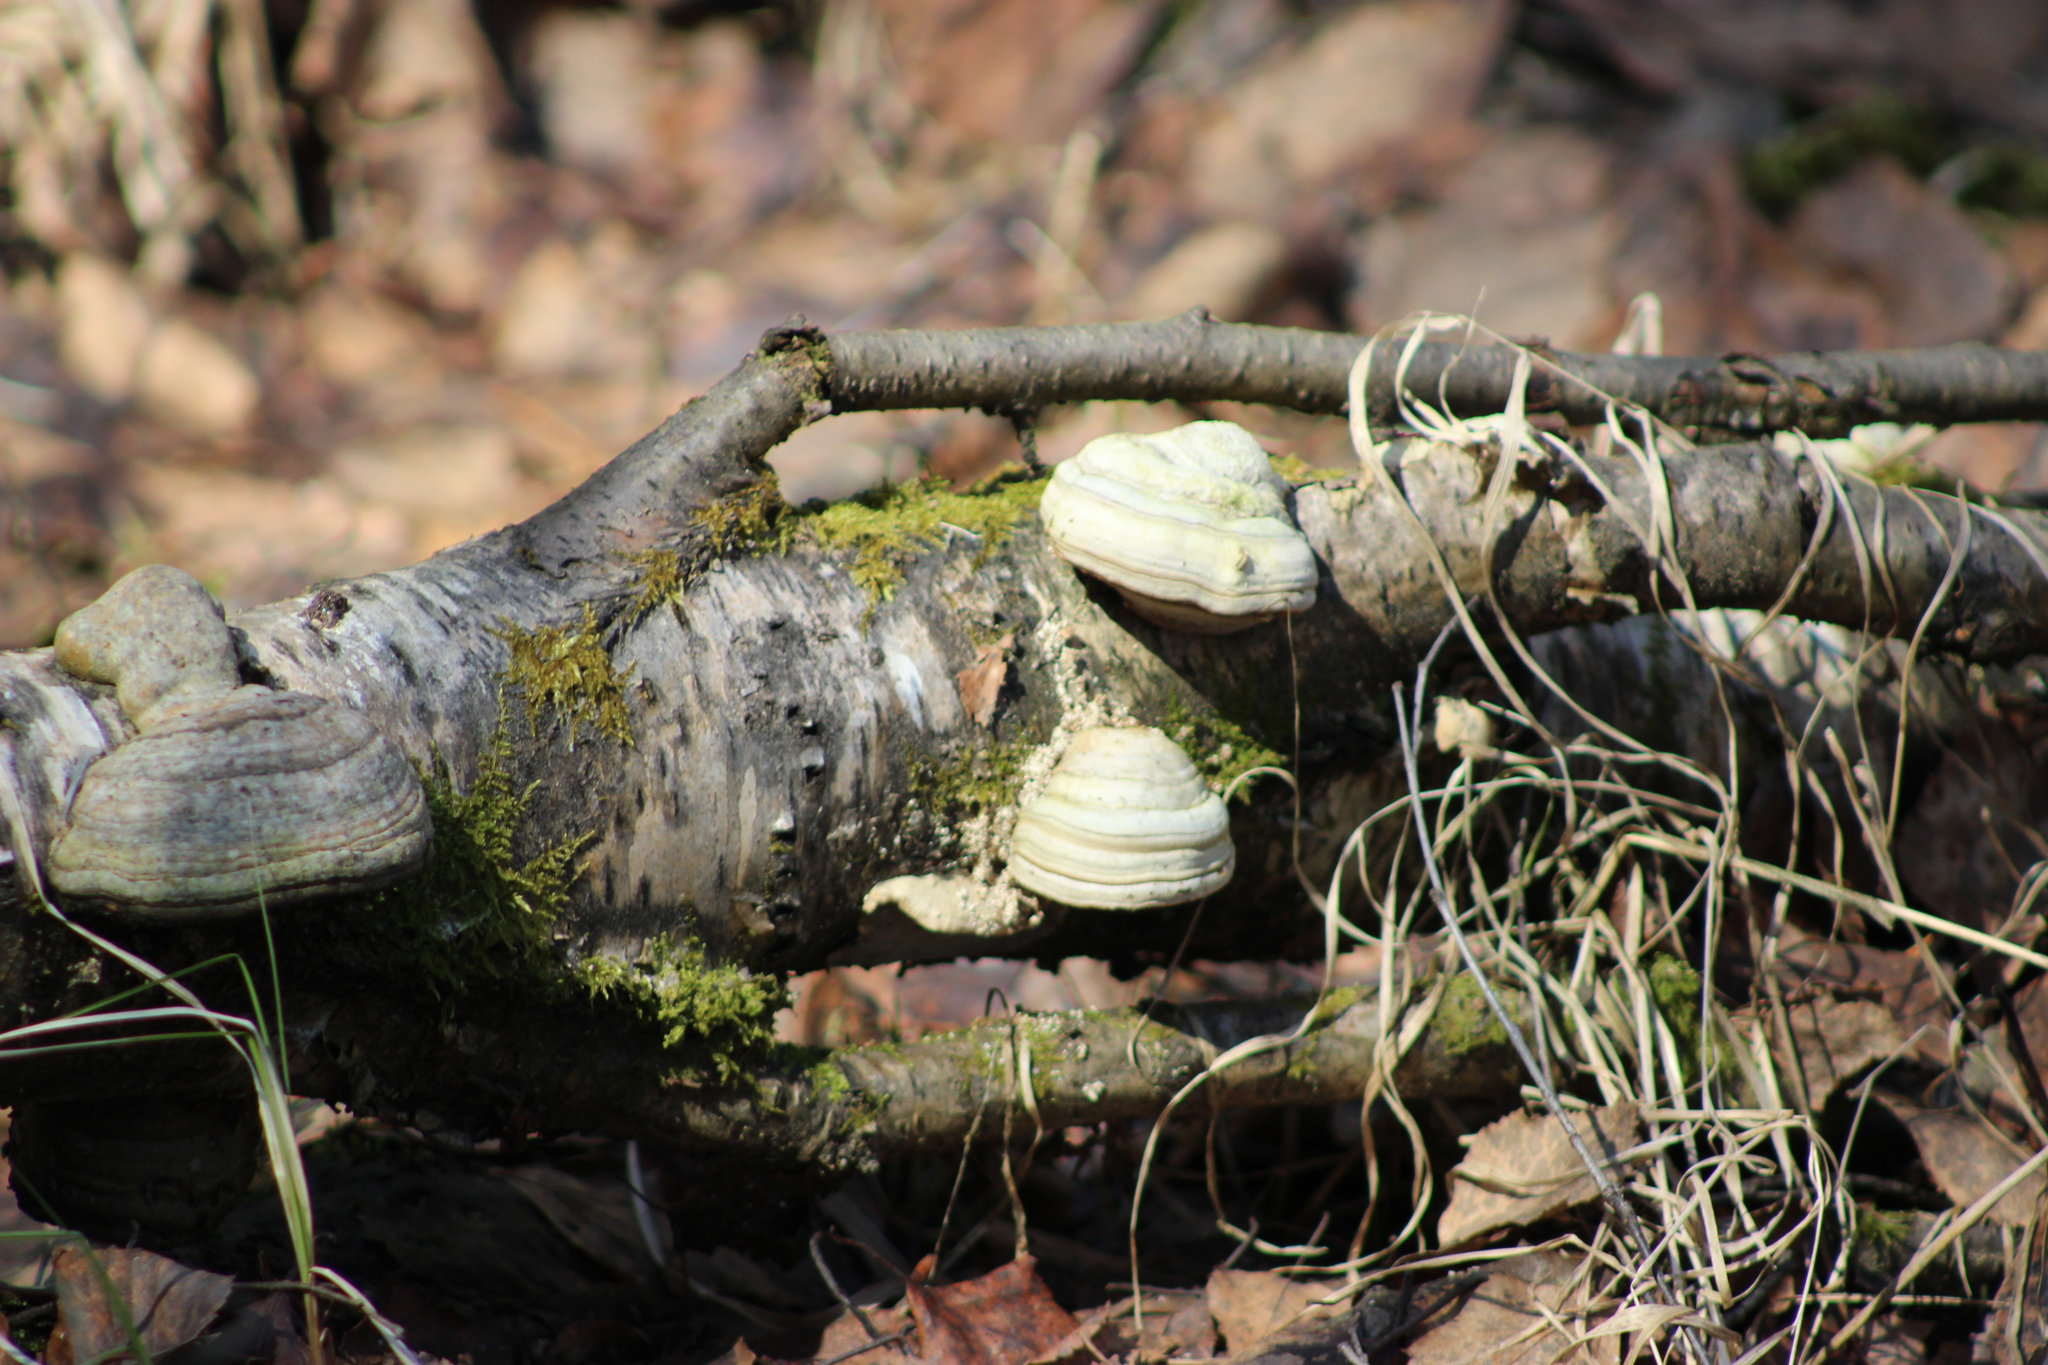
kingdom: Fungi
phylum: Basidiomycota
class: Agaricomycetes
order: Polyporales
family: Polyporaceae
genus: Fomes
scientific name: Fomes fomentarius
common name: Hoof fungus
